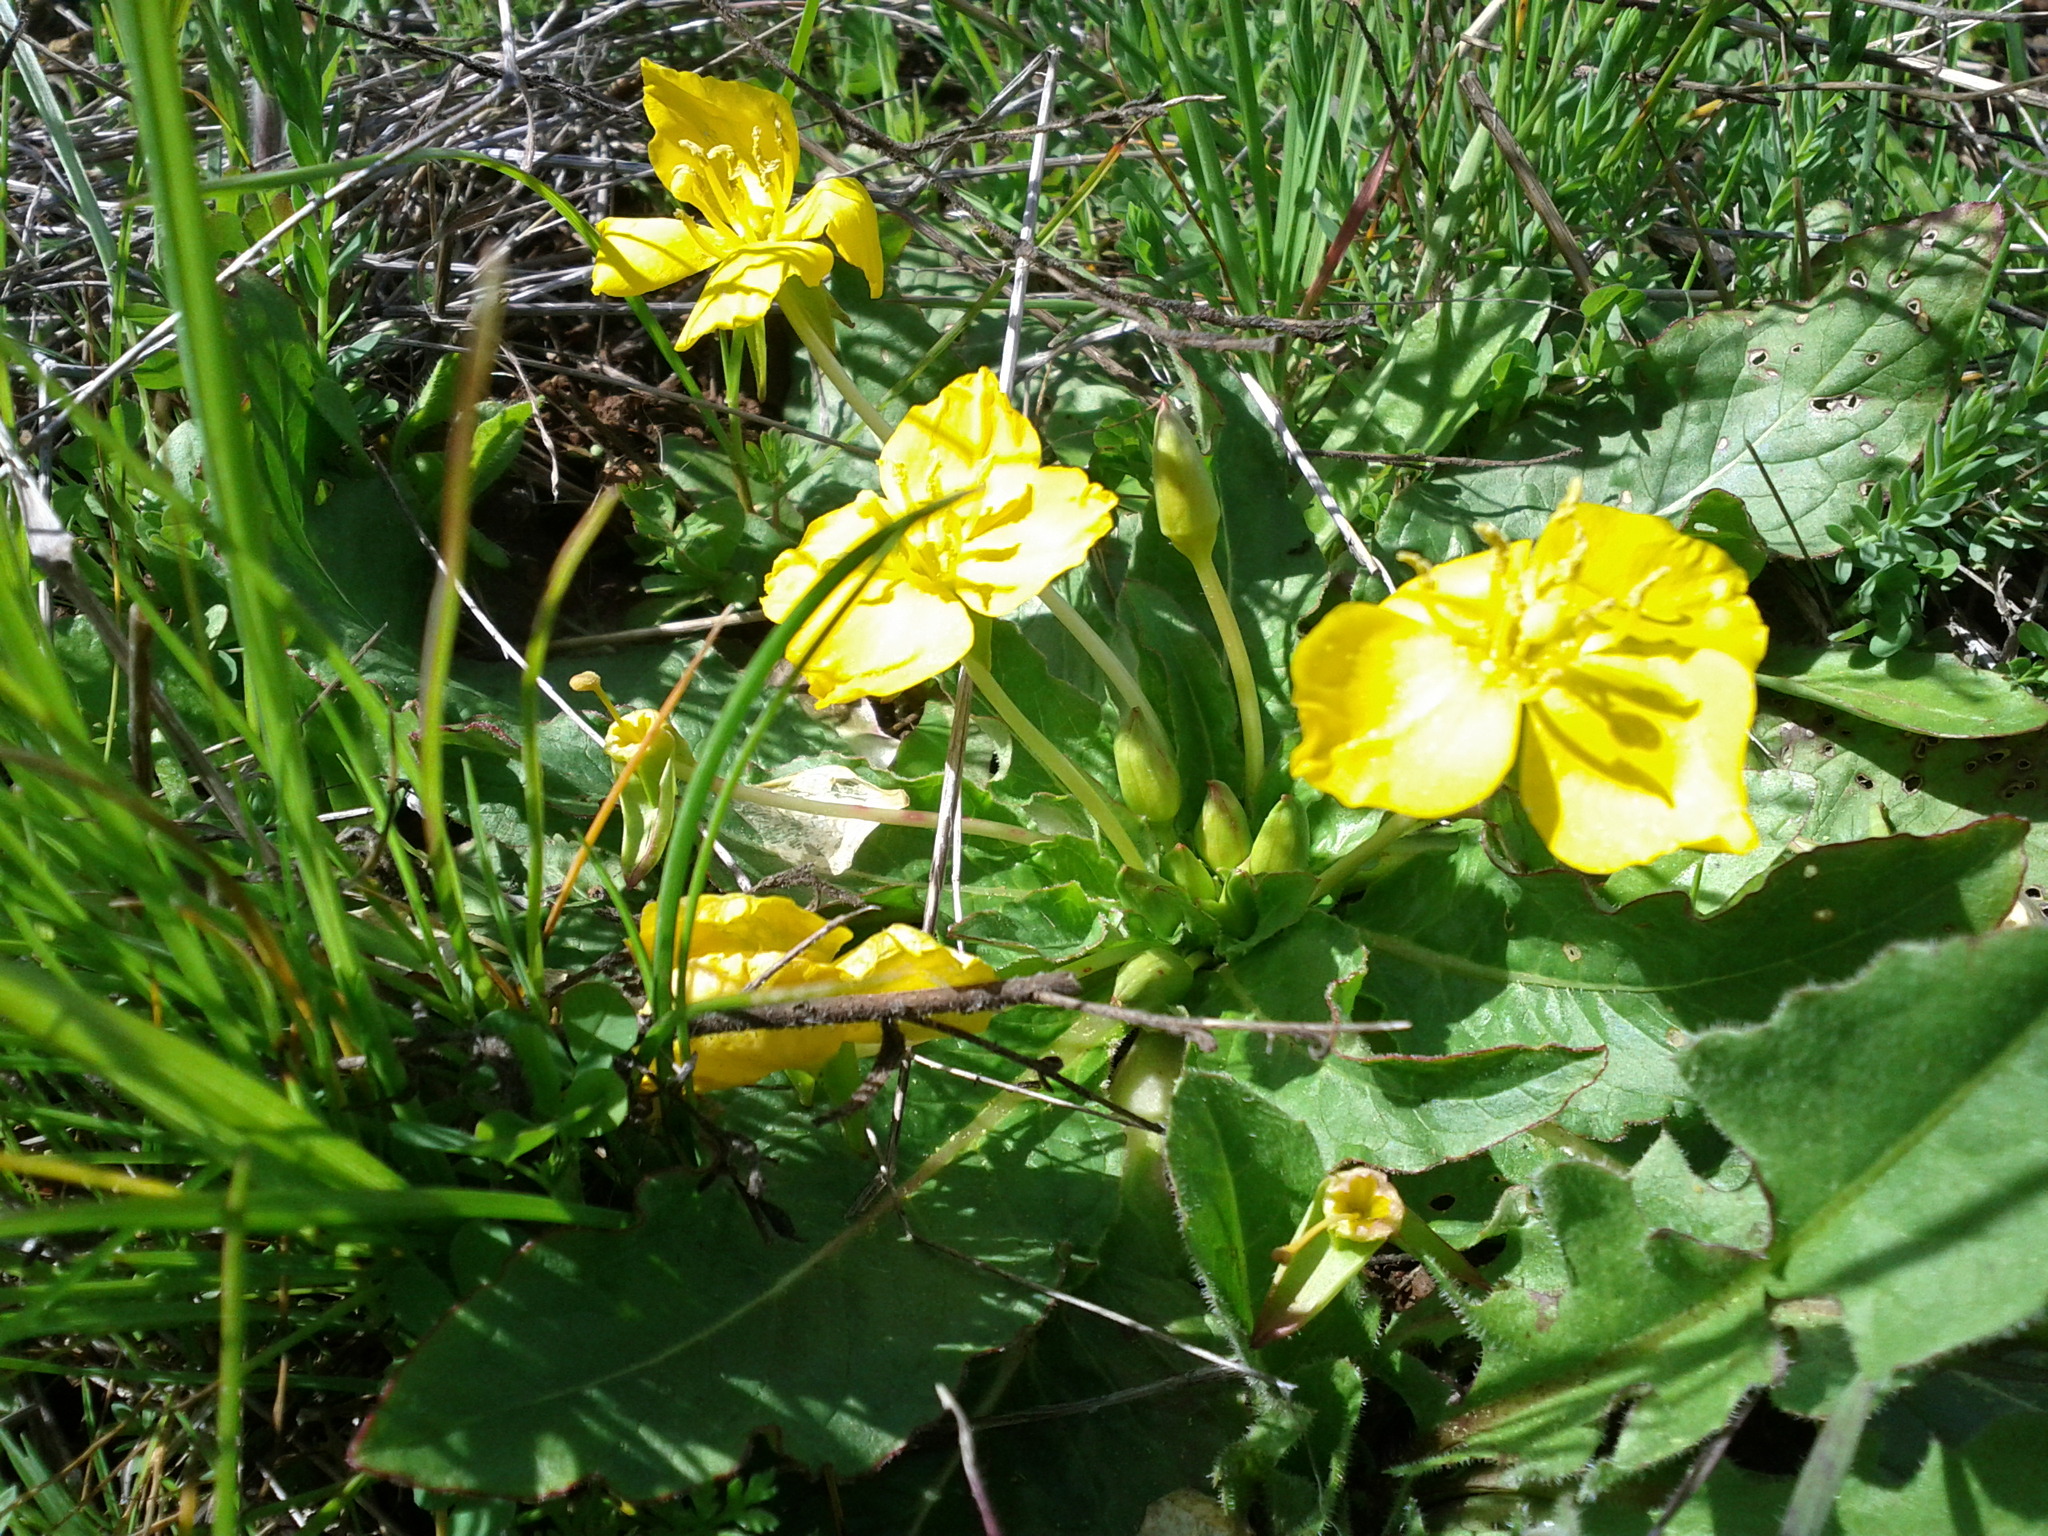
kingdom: Plantae
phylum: Tracheophyta
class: Magnoliopsida
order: Myrtales
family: Onagraceae
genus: Taraxia
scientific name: Taraxia ovata
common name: Goldeneggs
